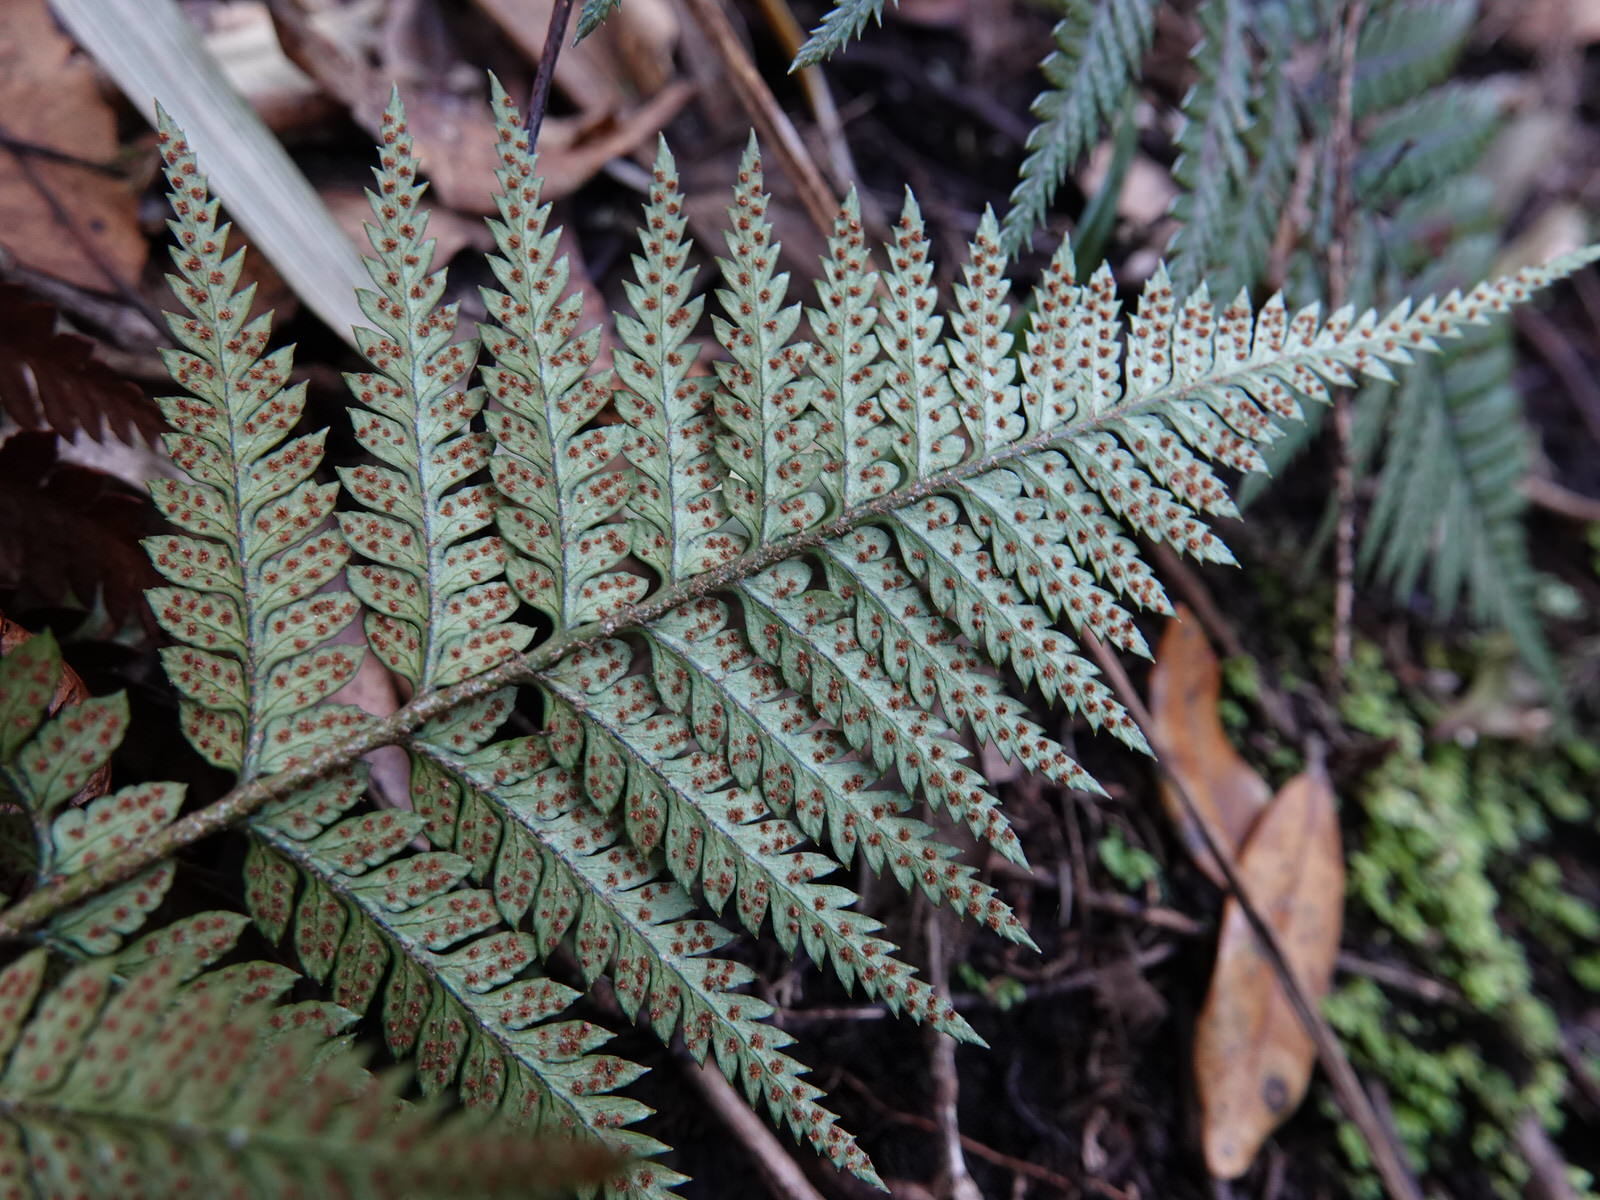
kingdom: Plantae
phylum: Tracheophyta
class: Polypodiopsida
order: Polypodiales
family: Dryopteridaceae
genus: Polystichum
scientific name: Polystichum neozelandicum
